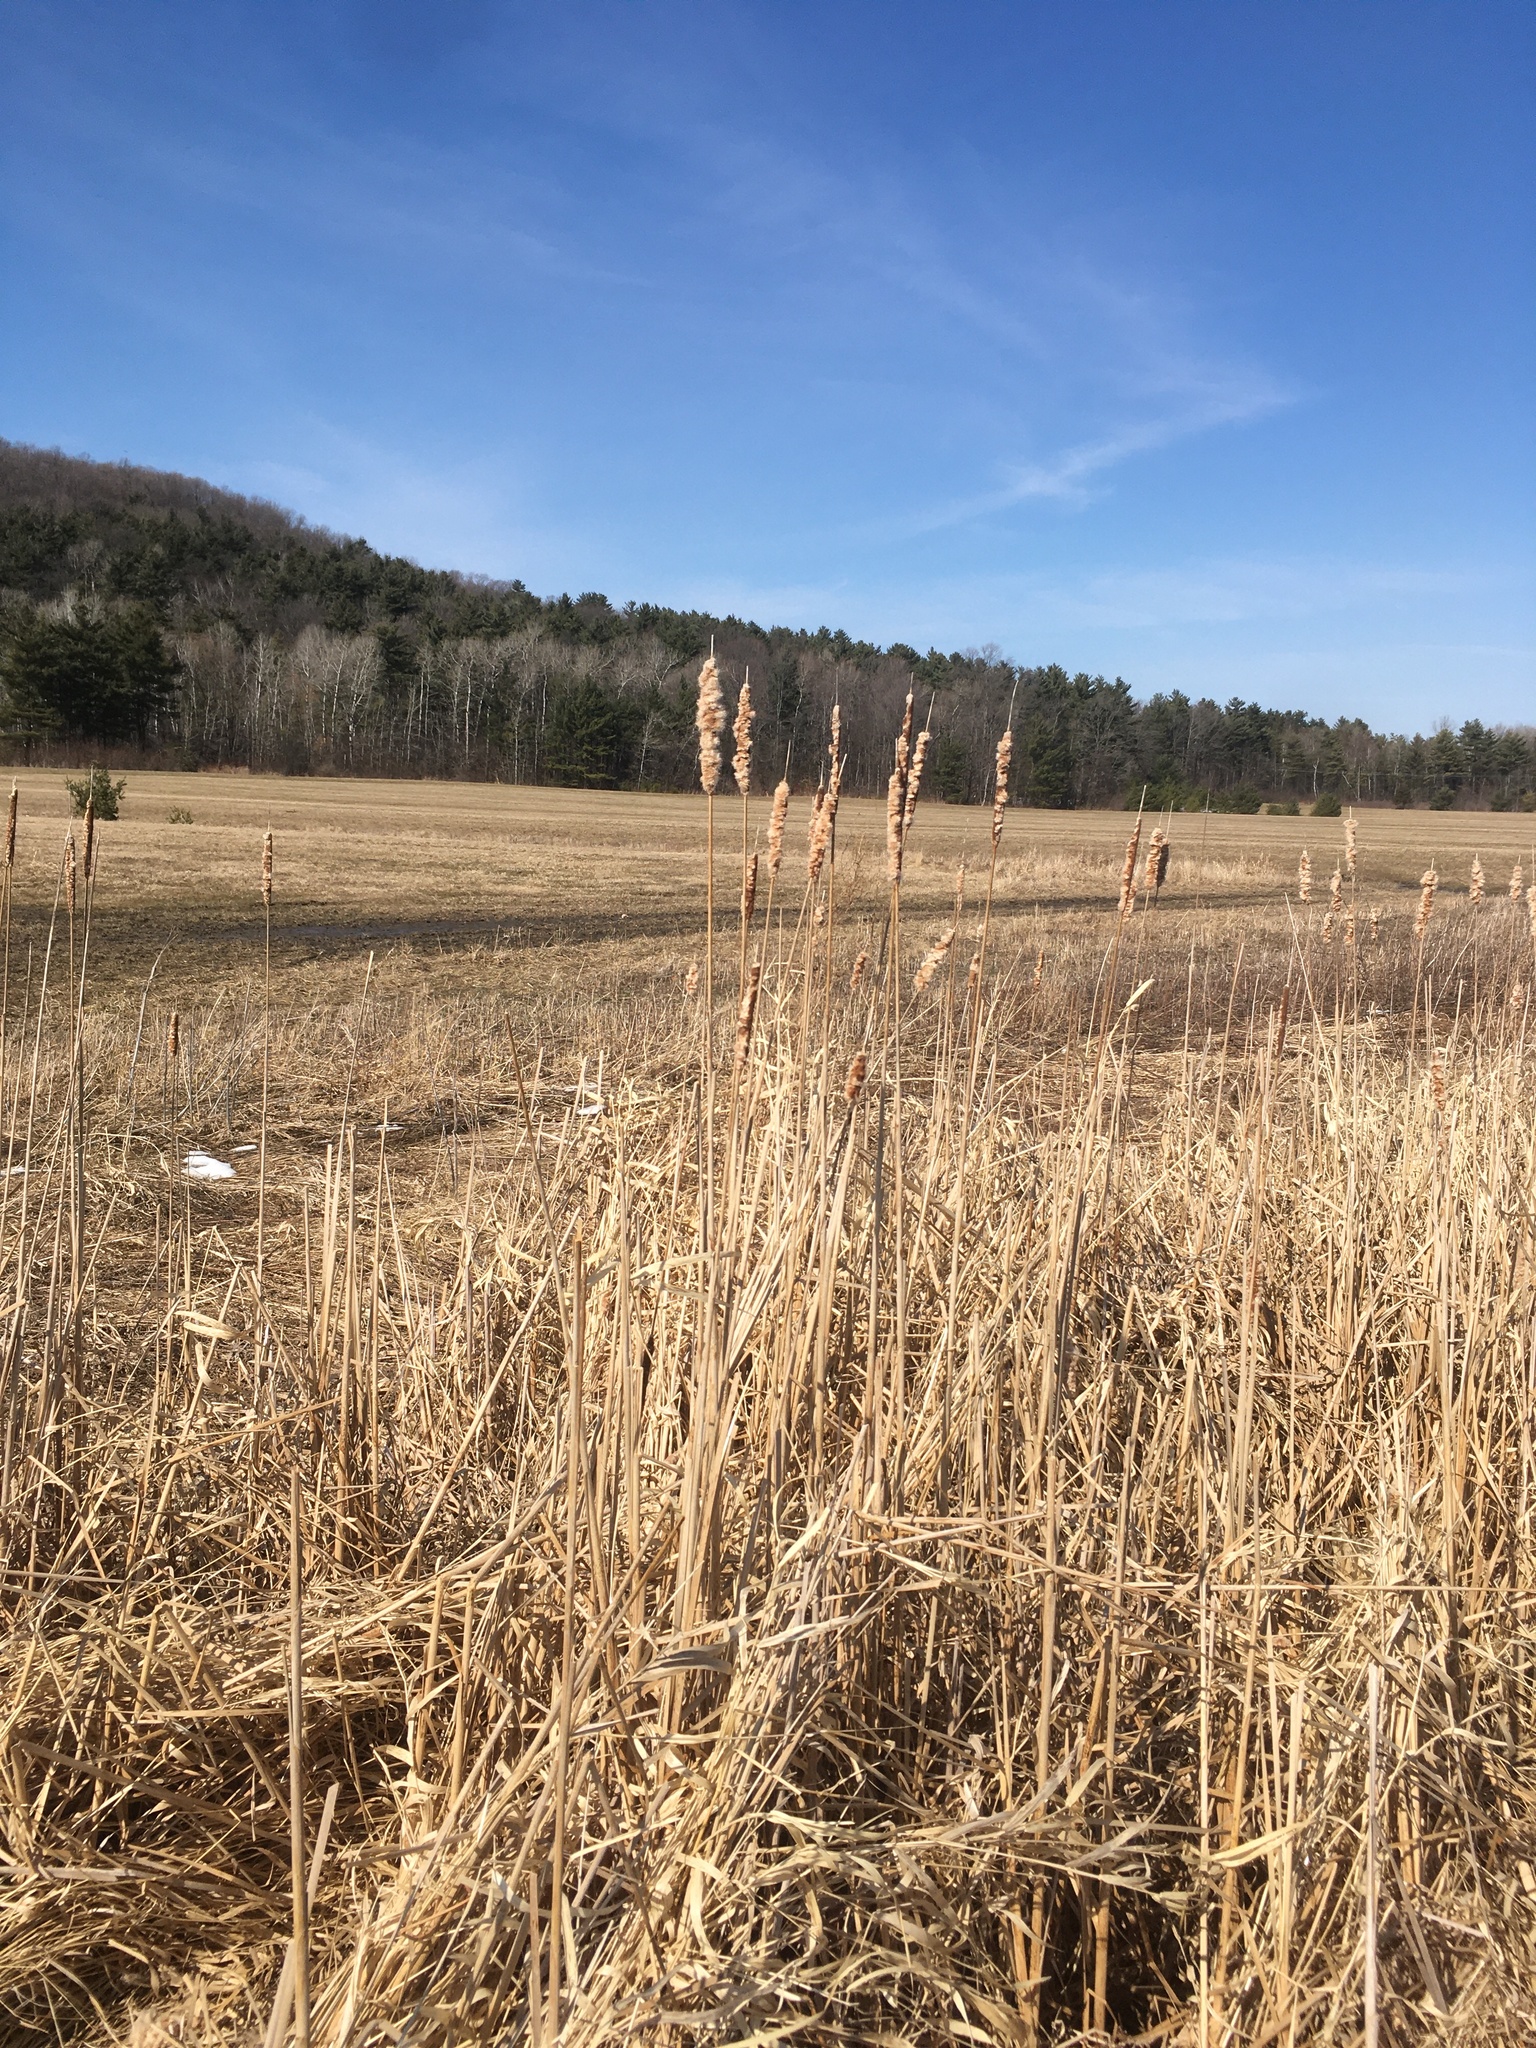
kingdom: Plantae
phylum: Tracheophyta
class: Liliopsida
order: Poales
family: Typhaceae
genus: Typha
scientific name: Typha
